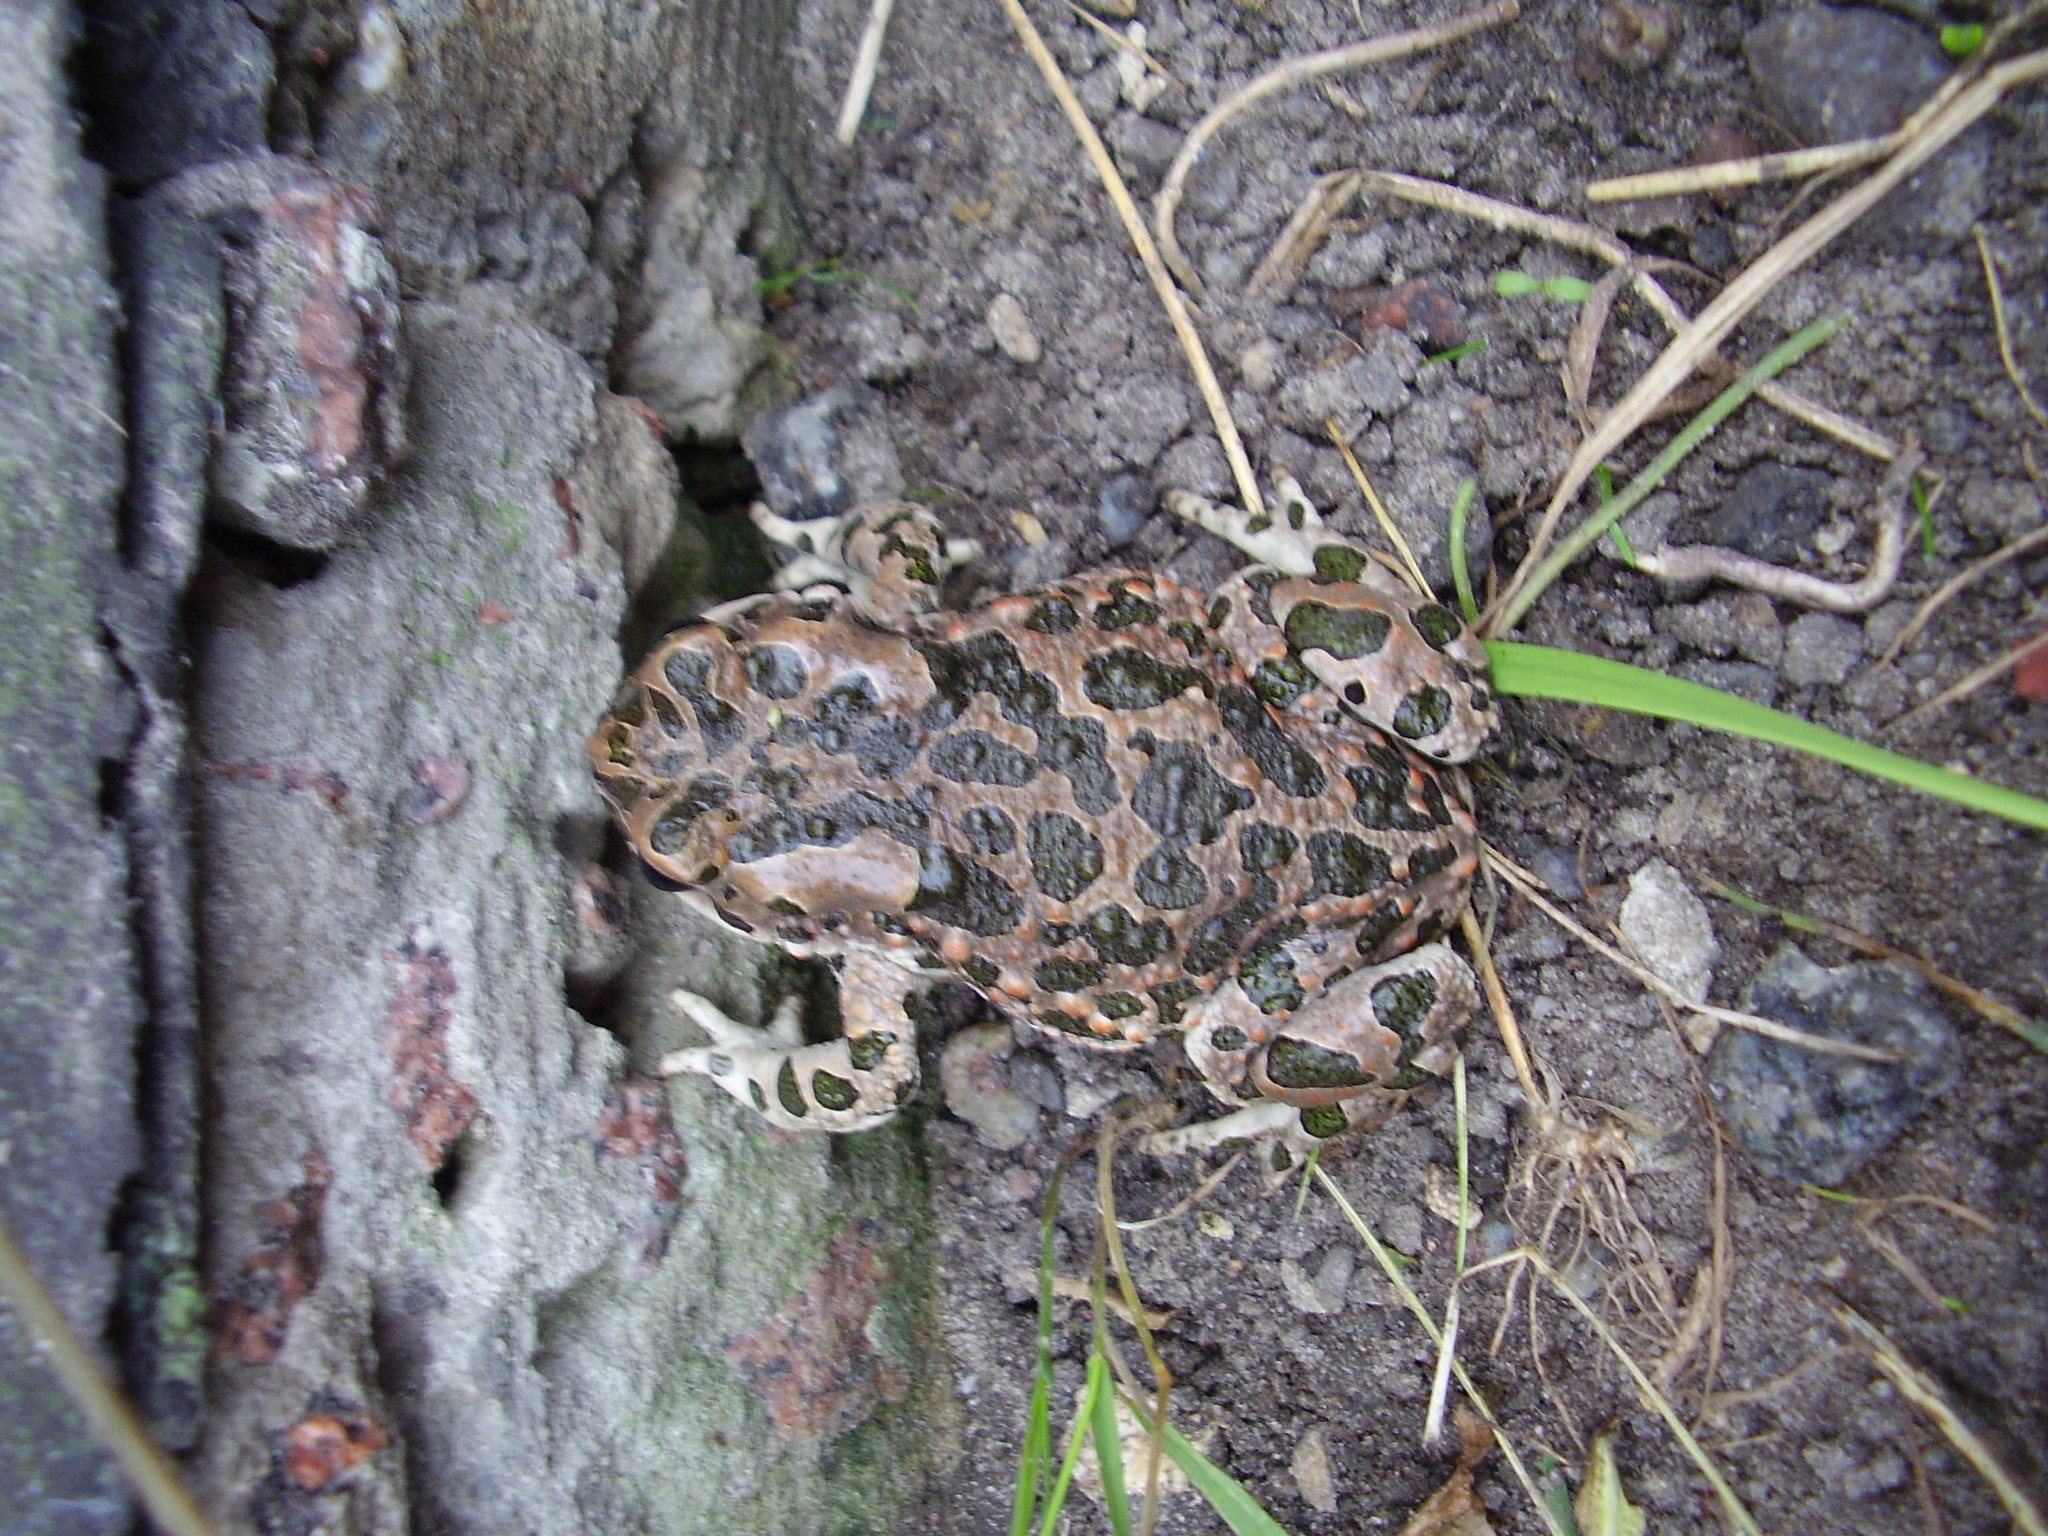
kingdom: Animalia
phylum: Chordata
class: Amphibia
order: Anura
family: Bufonidae
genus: Bufotes
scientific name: Bufotes viridis
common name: European green toad
